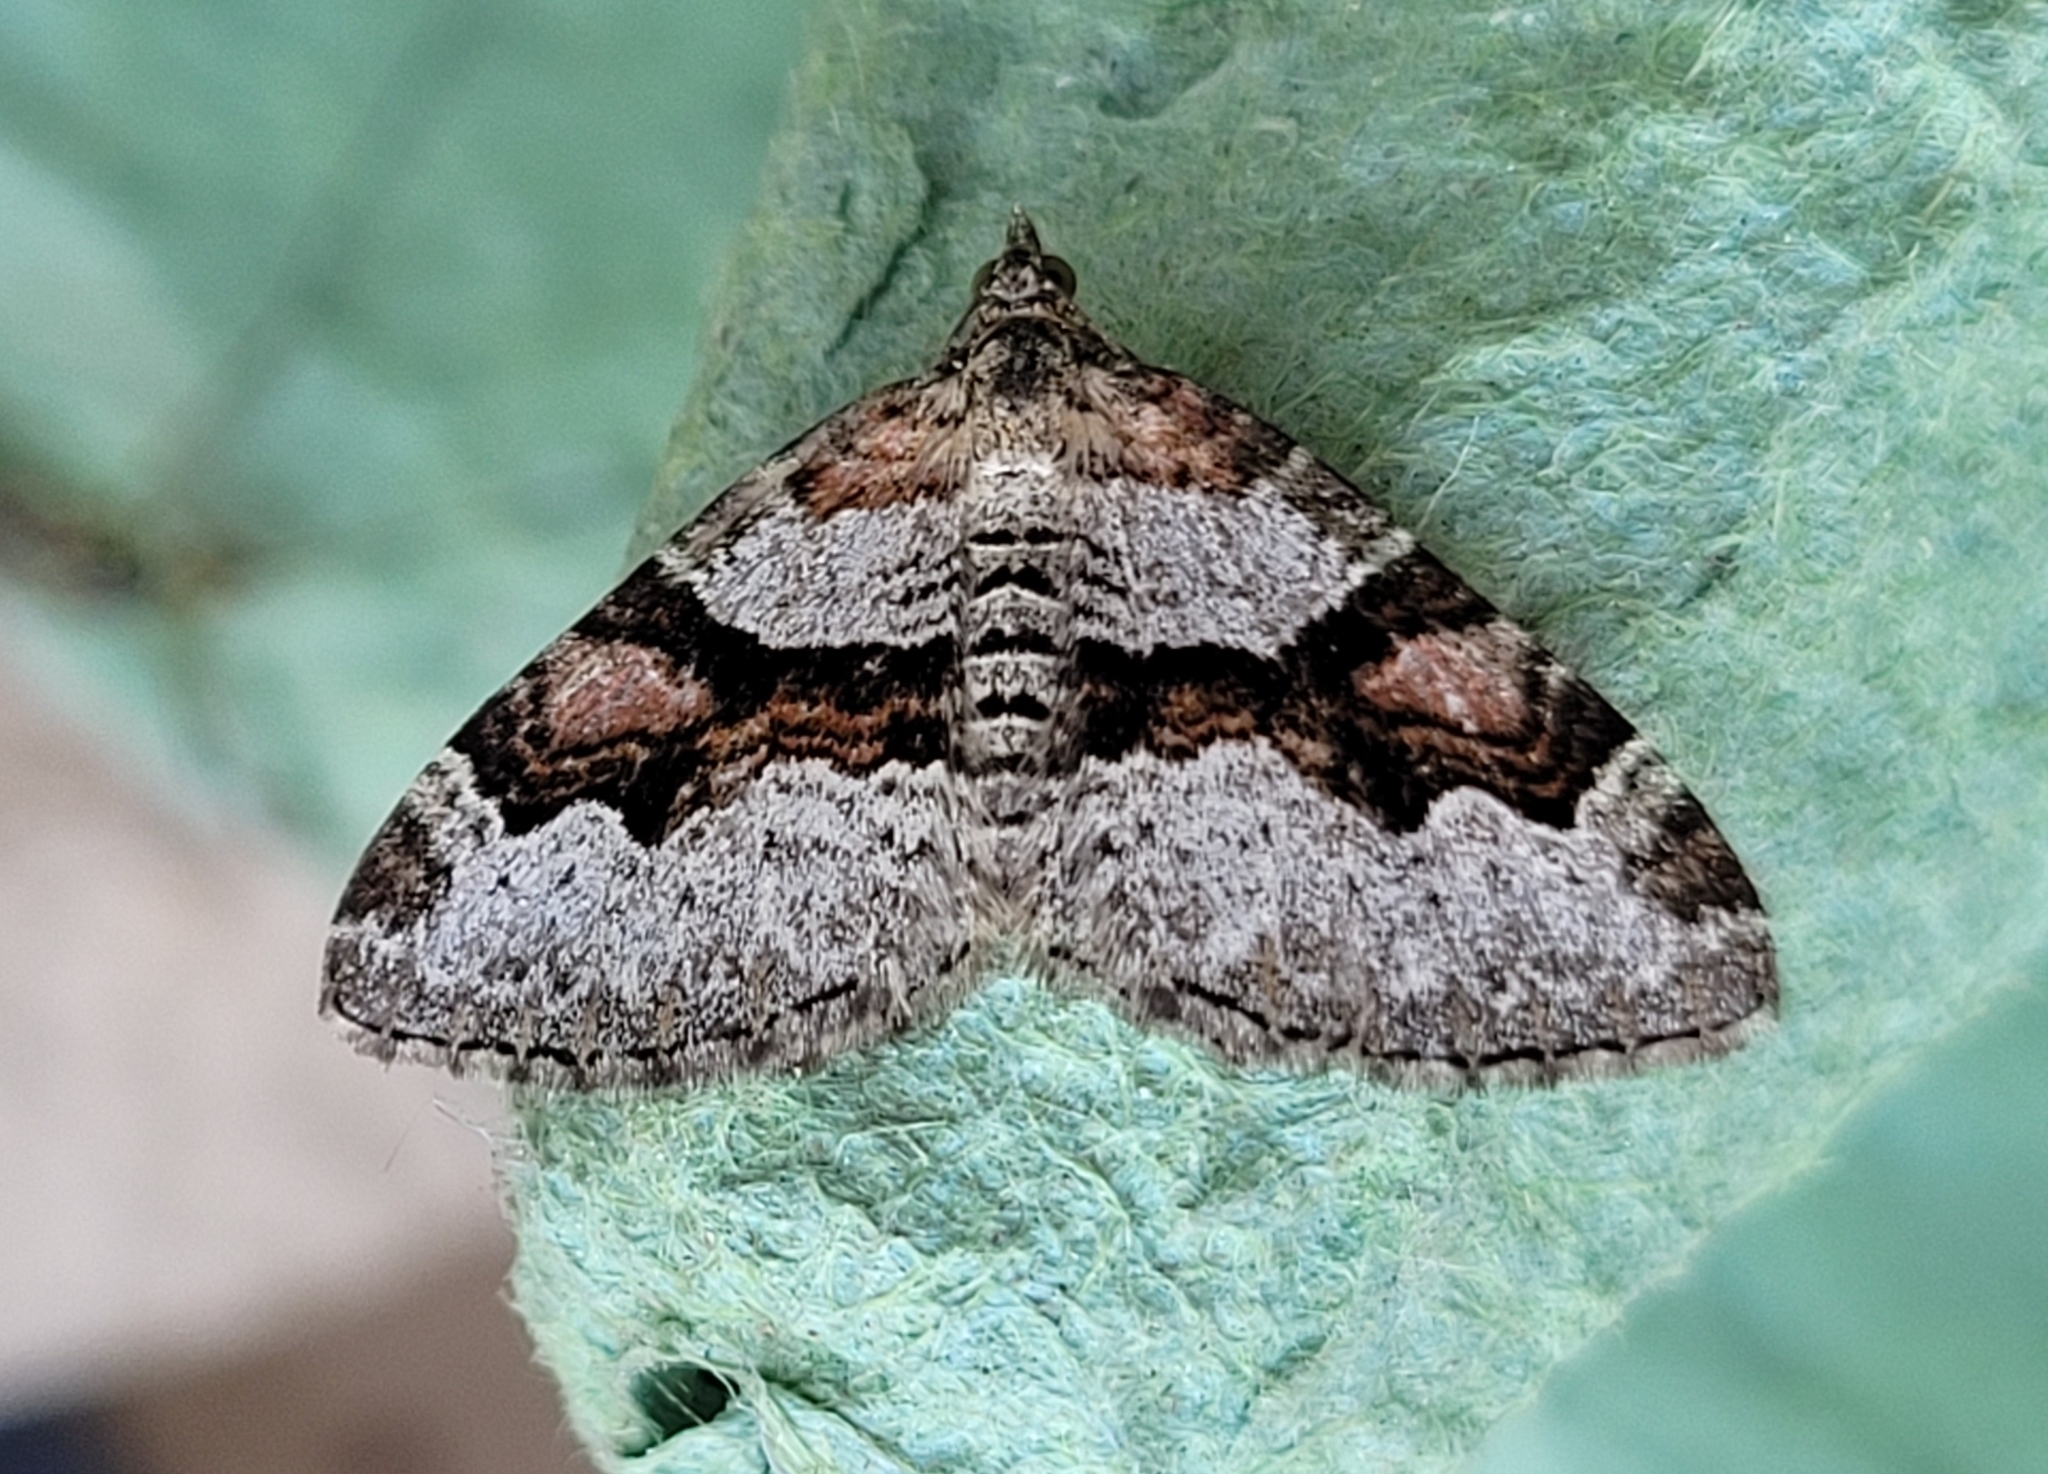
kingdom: Animalia
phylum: Arthropoda
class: Insecta
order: Lepidoptera
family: Geometridae
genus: Xanthorhoe
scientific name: Xanthorhoe designata
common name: Flame carpet
